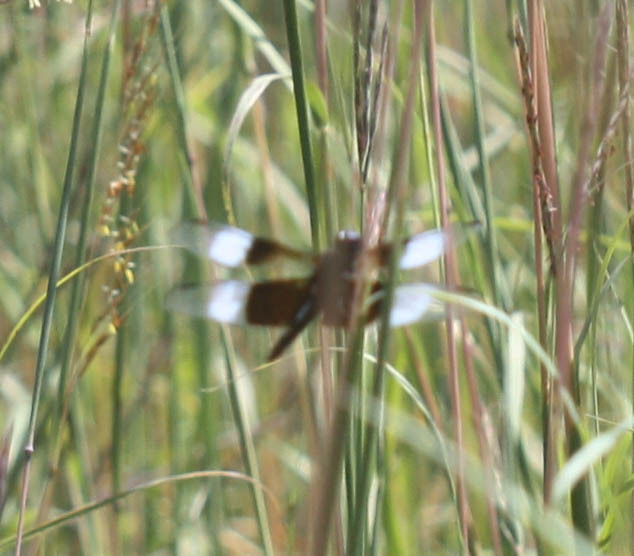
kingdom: Animalia
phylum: Arthropoda
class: Insecta
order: Odonata
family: Libellulidae
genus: Libellula
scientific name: Libellula luctuosa
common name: Widow skimmer
